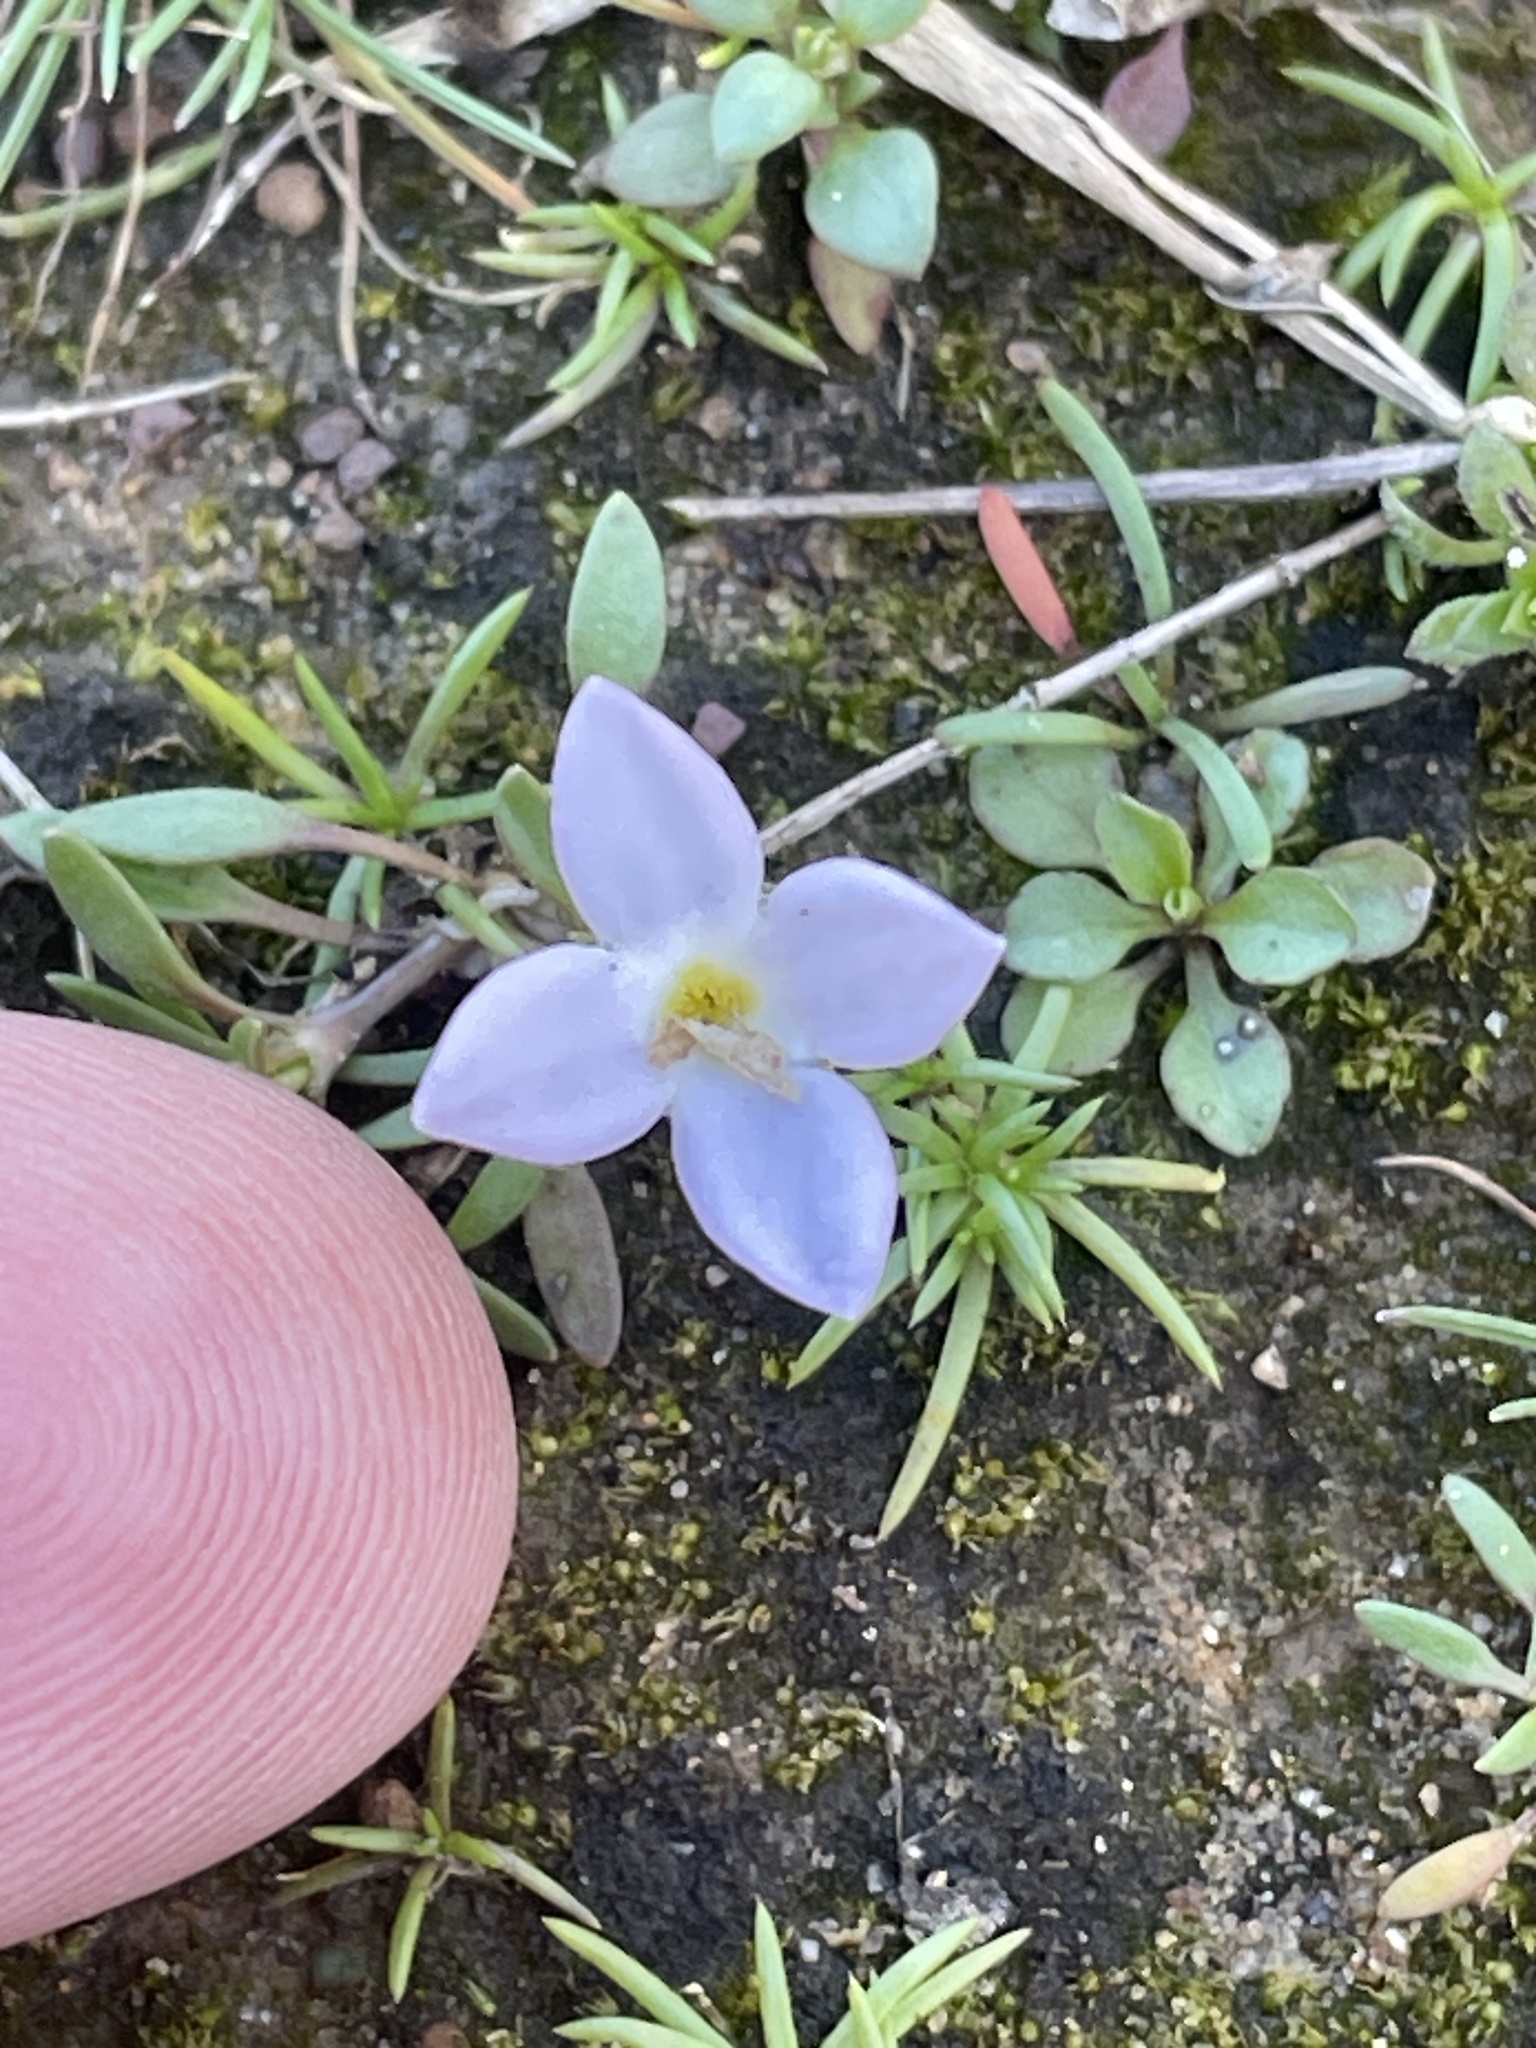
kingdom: Plantae
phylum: Tracheophyta
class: Magnoliopsida
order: Gentianales
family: Rubiaceae
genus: Houstonia
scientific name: Houstonia rosea
